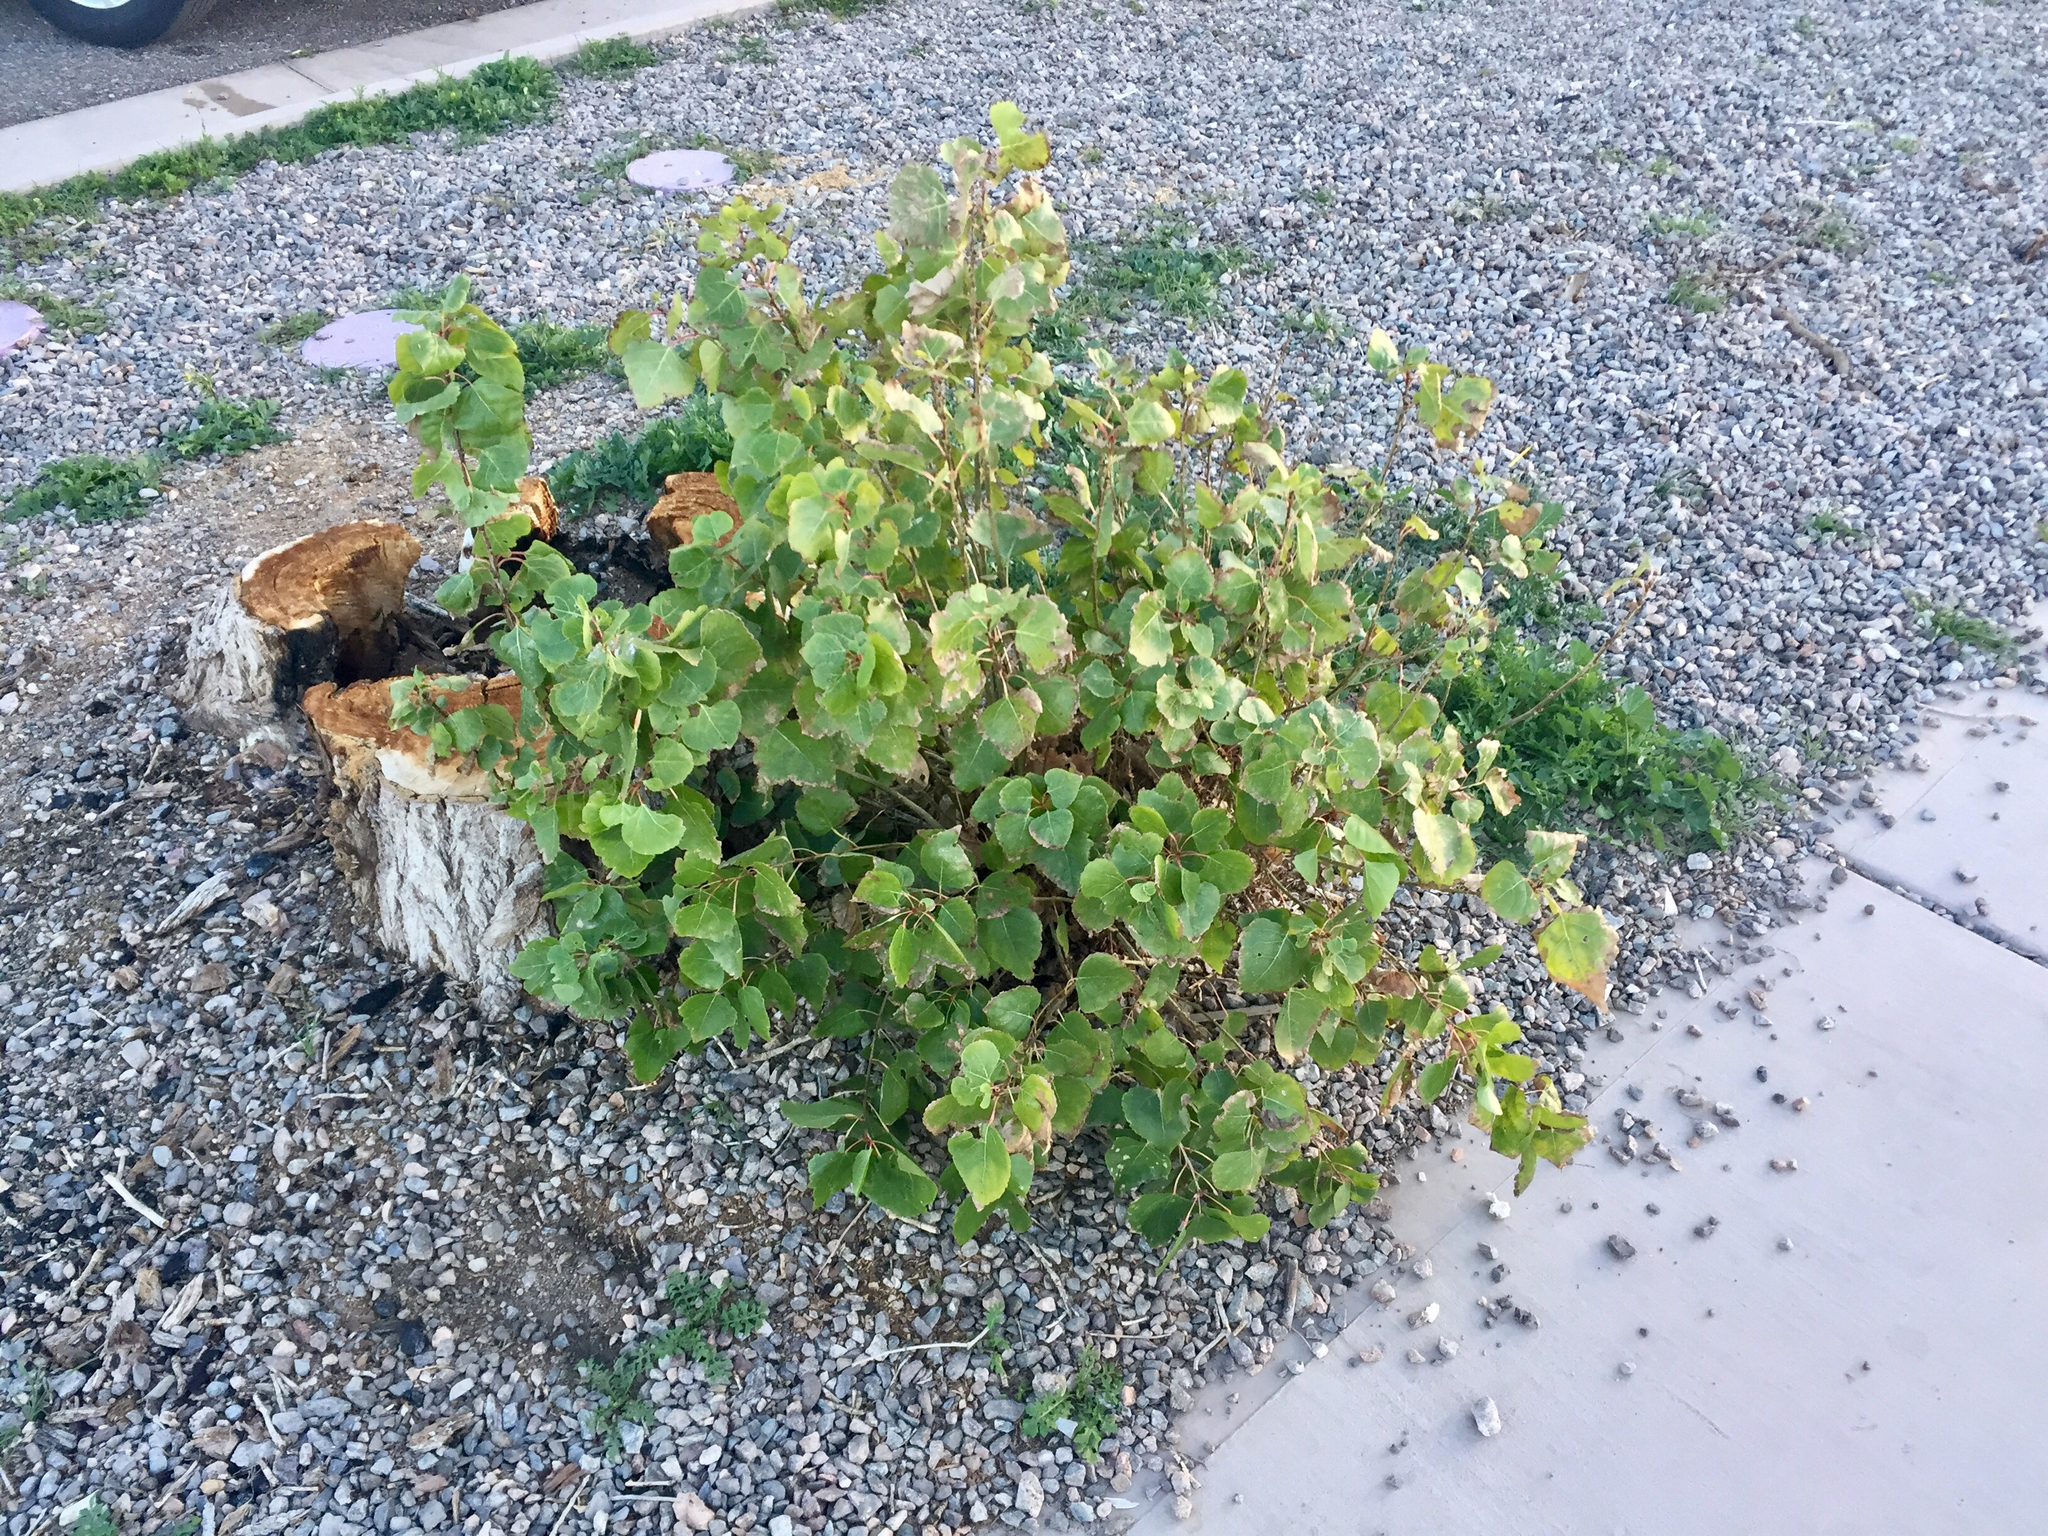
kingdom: Plantae
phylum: Tracheophyta
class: Magnoliopsida
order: Malpighiales
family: Salicaceae
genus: Populus
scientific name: Populus fremontii
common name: Fremont's cottonwood
